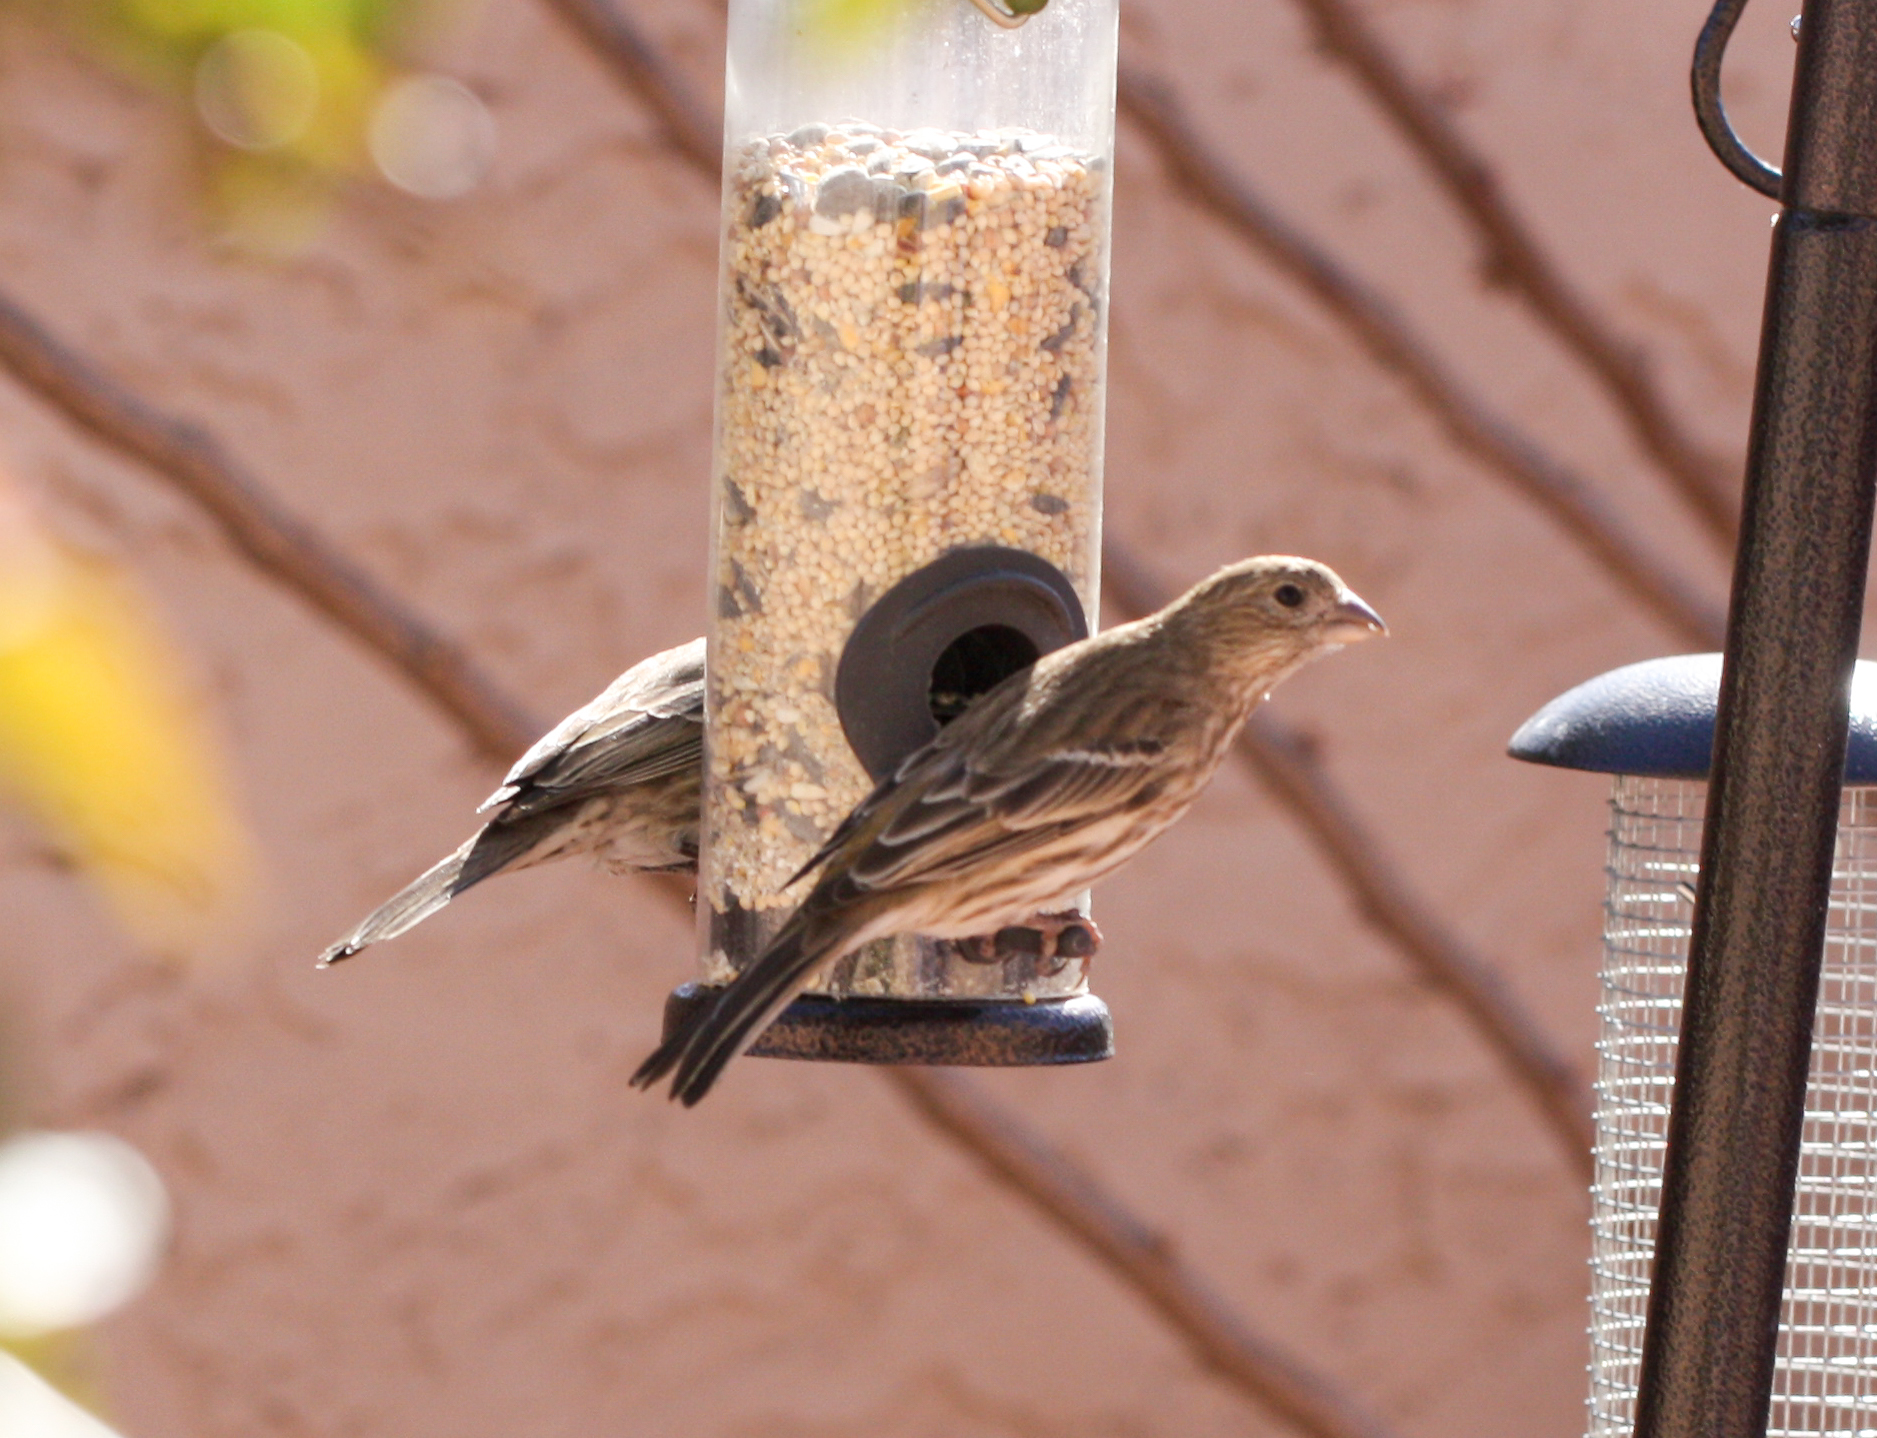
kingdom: Animalia
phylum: Chordata
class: Aves
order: Passeriformes
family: Fringillidae
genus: Haemorhous
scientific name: Haemorhous mexicanus
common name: House finch
